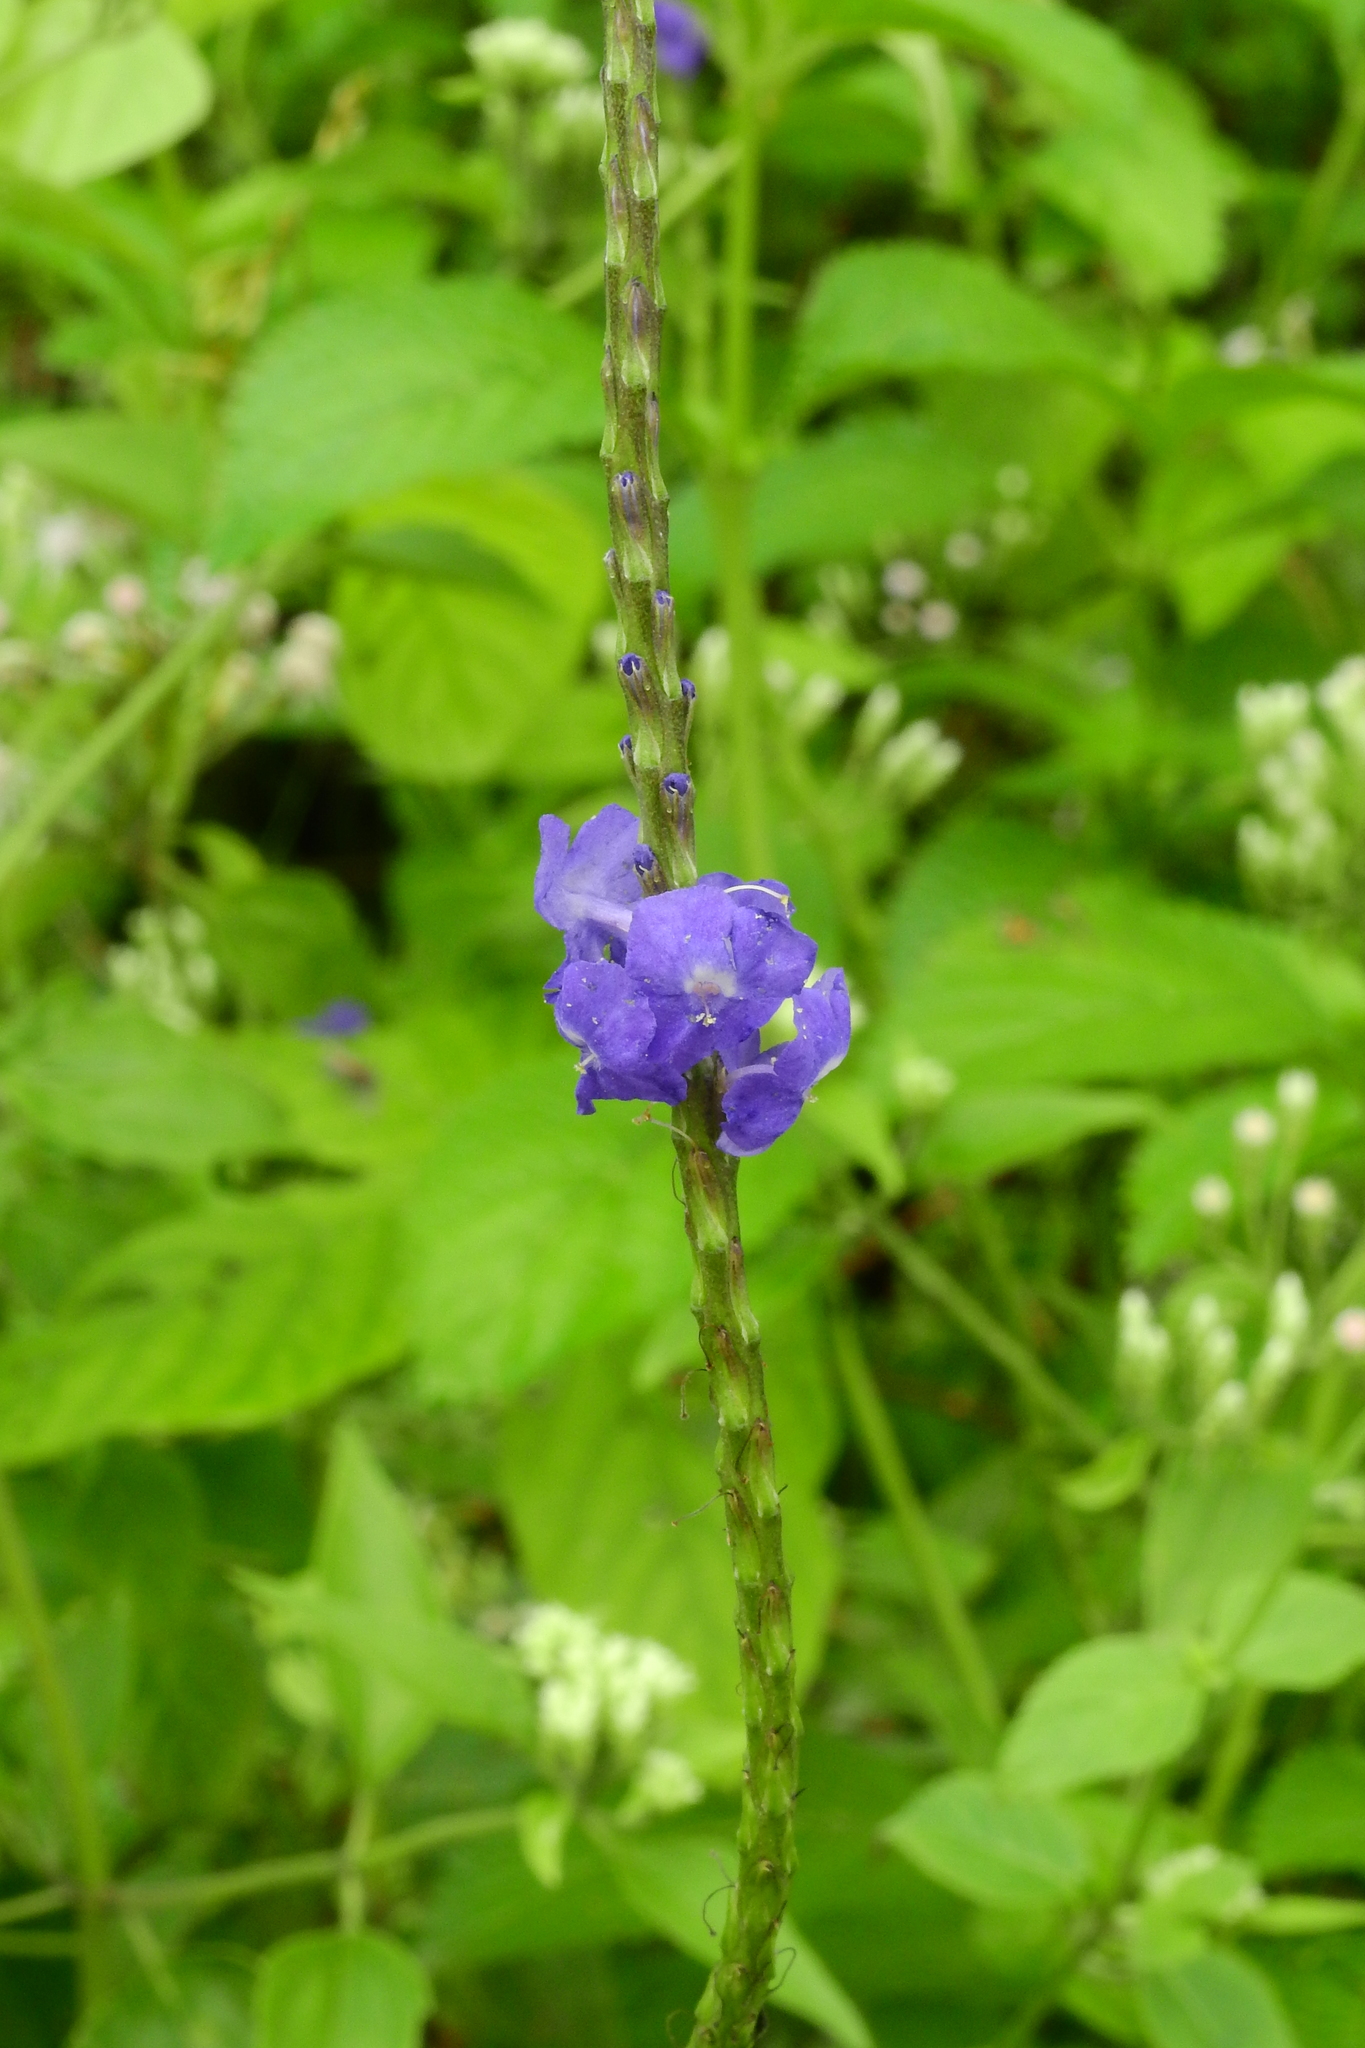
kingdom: Plantae
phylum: Tracheophyta
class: Magnoliopsida
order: Lamiales
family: Verbenaceae
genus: Stachytarpheta
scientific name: Stachytarpheta jamaicensis
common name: Light-blue snakeweed
